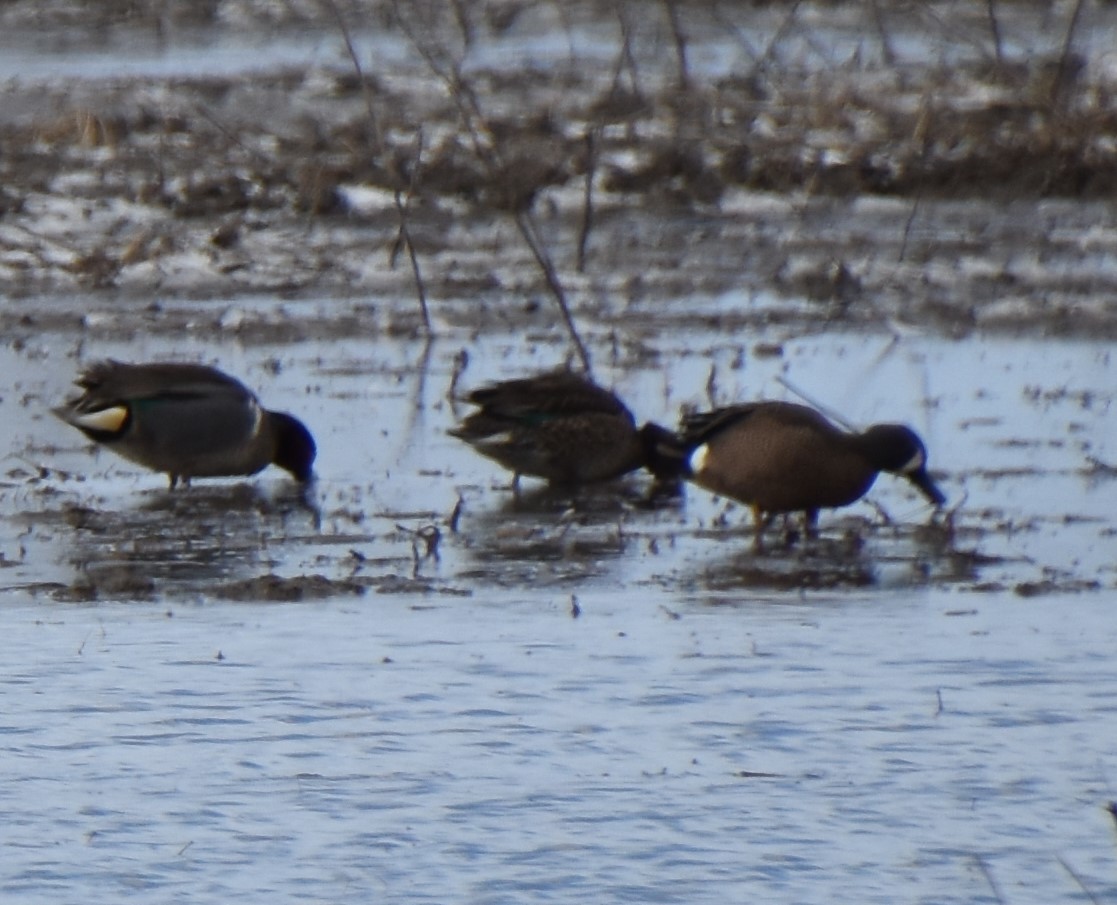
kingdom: Animalia
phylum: Chordata
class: Aves
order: Anseriformes
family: Anatidae
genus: Spatula
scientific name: Spatula discors
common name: Blue-winged teal
